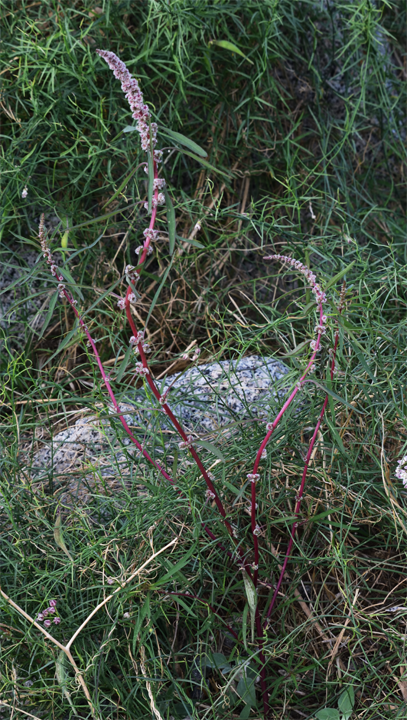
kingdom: Plantae
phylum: Tracheophyta
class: Magnoliopsida
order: Caryophyllales
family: Amaranthaceae
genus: Amaranthus
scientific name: Amaranthus fimbriatus
